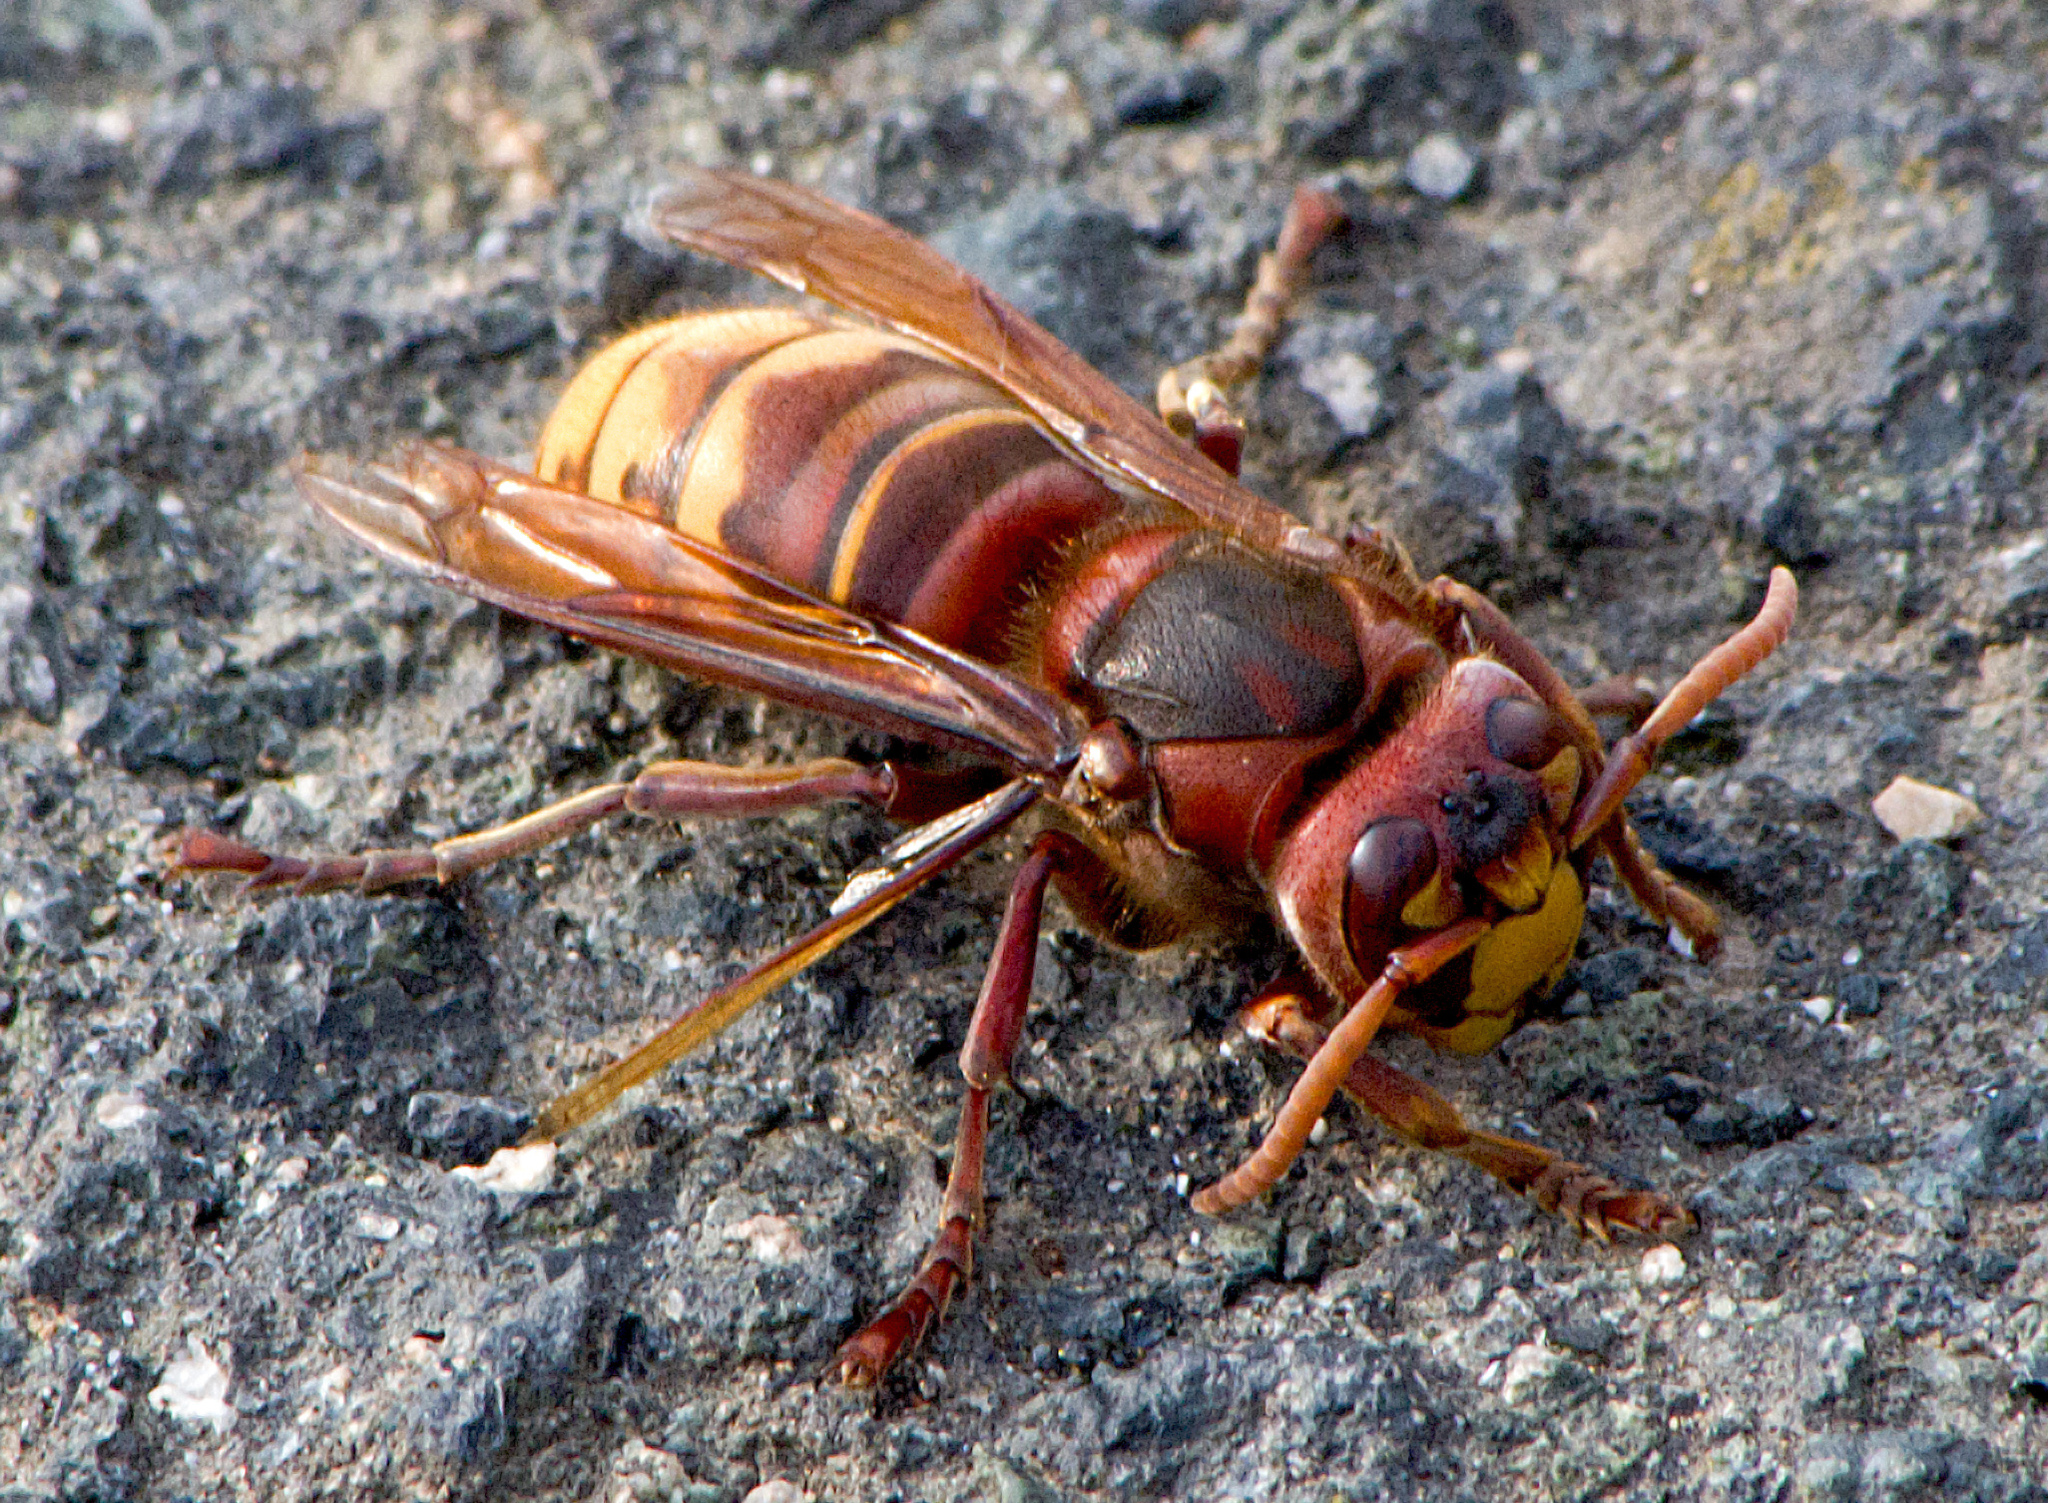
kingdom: Animalia
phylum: Arthropoda
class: Insecta
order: Hymenoptera
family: Vespidae
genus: Vespa
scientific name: Vespa crabro
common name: Hornet
